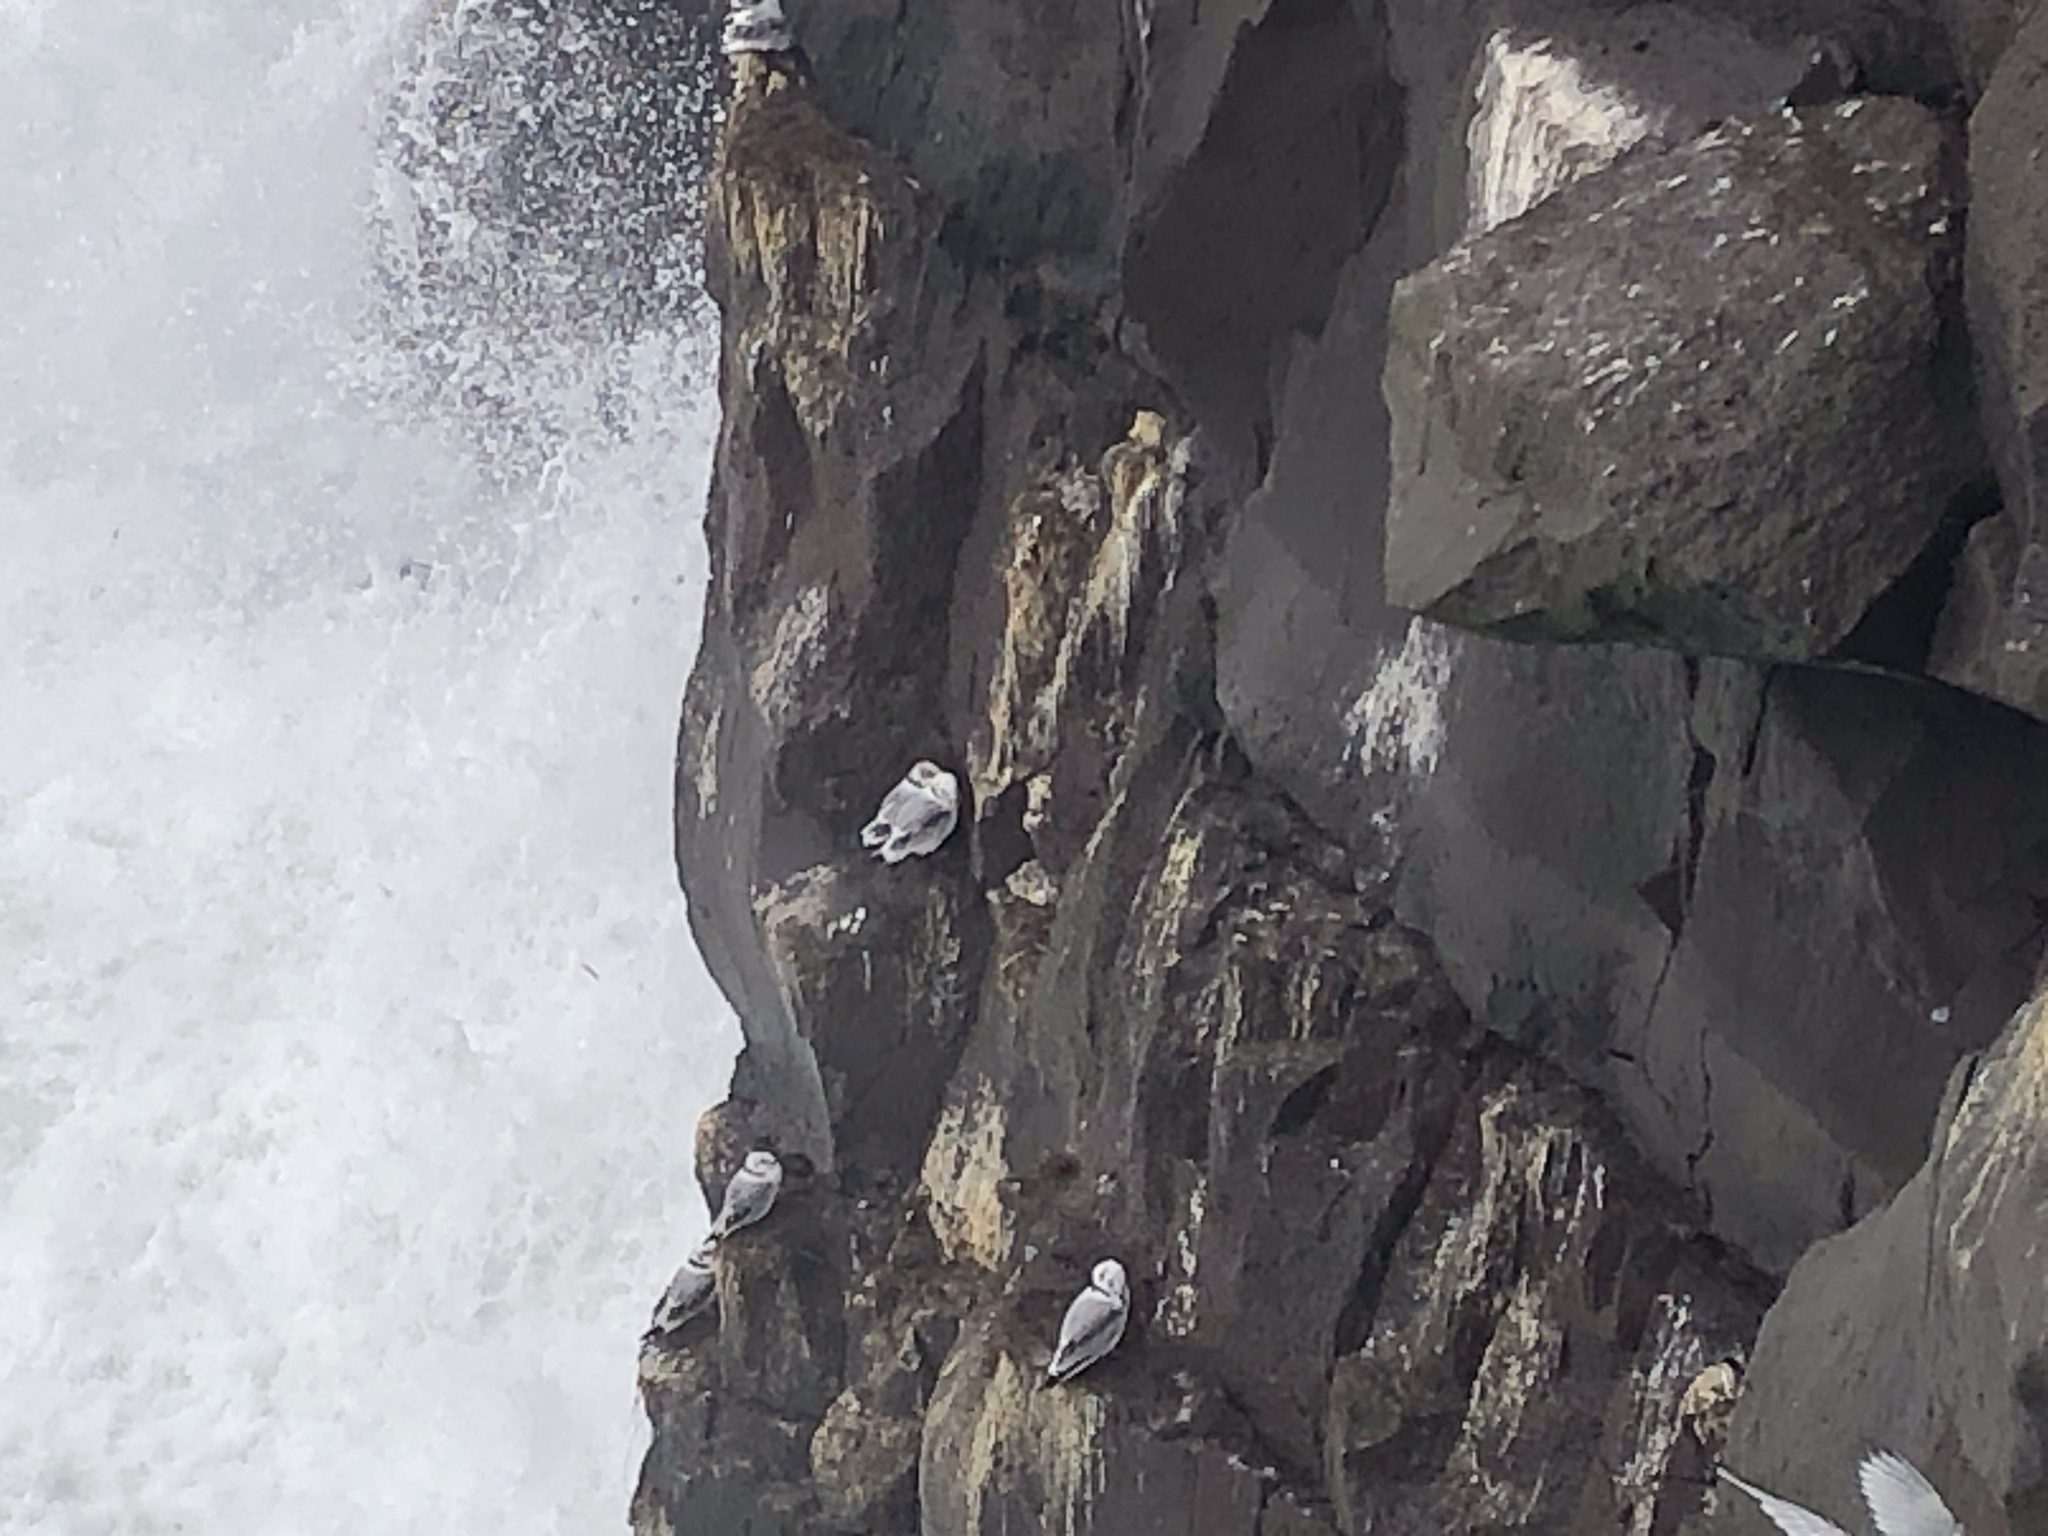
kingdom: Animalia
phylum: Chordata
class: Aves
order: Charadriiformes
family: Laridae
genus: Rissa
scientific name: Rissa tridactyla
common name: Black-legged kittiwake
